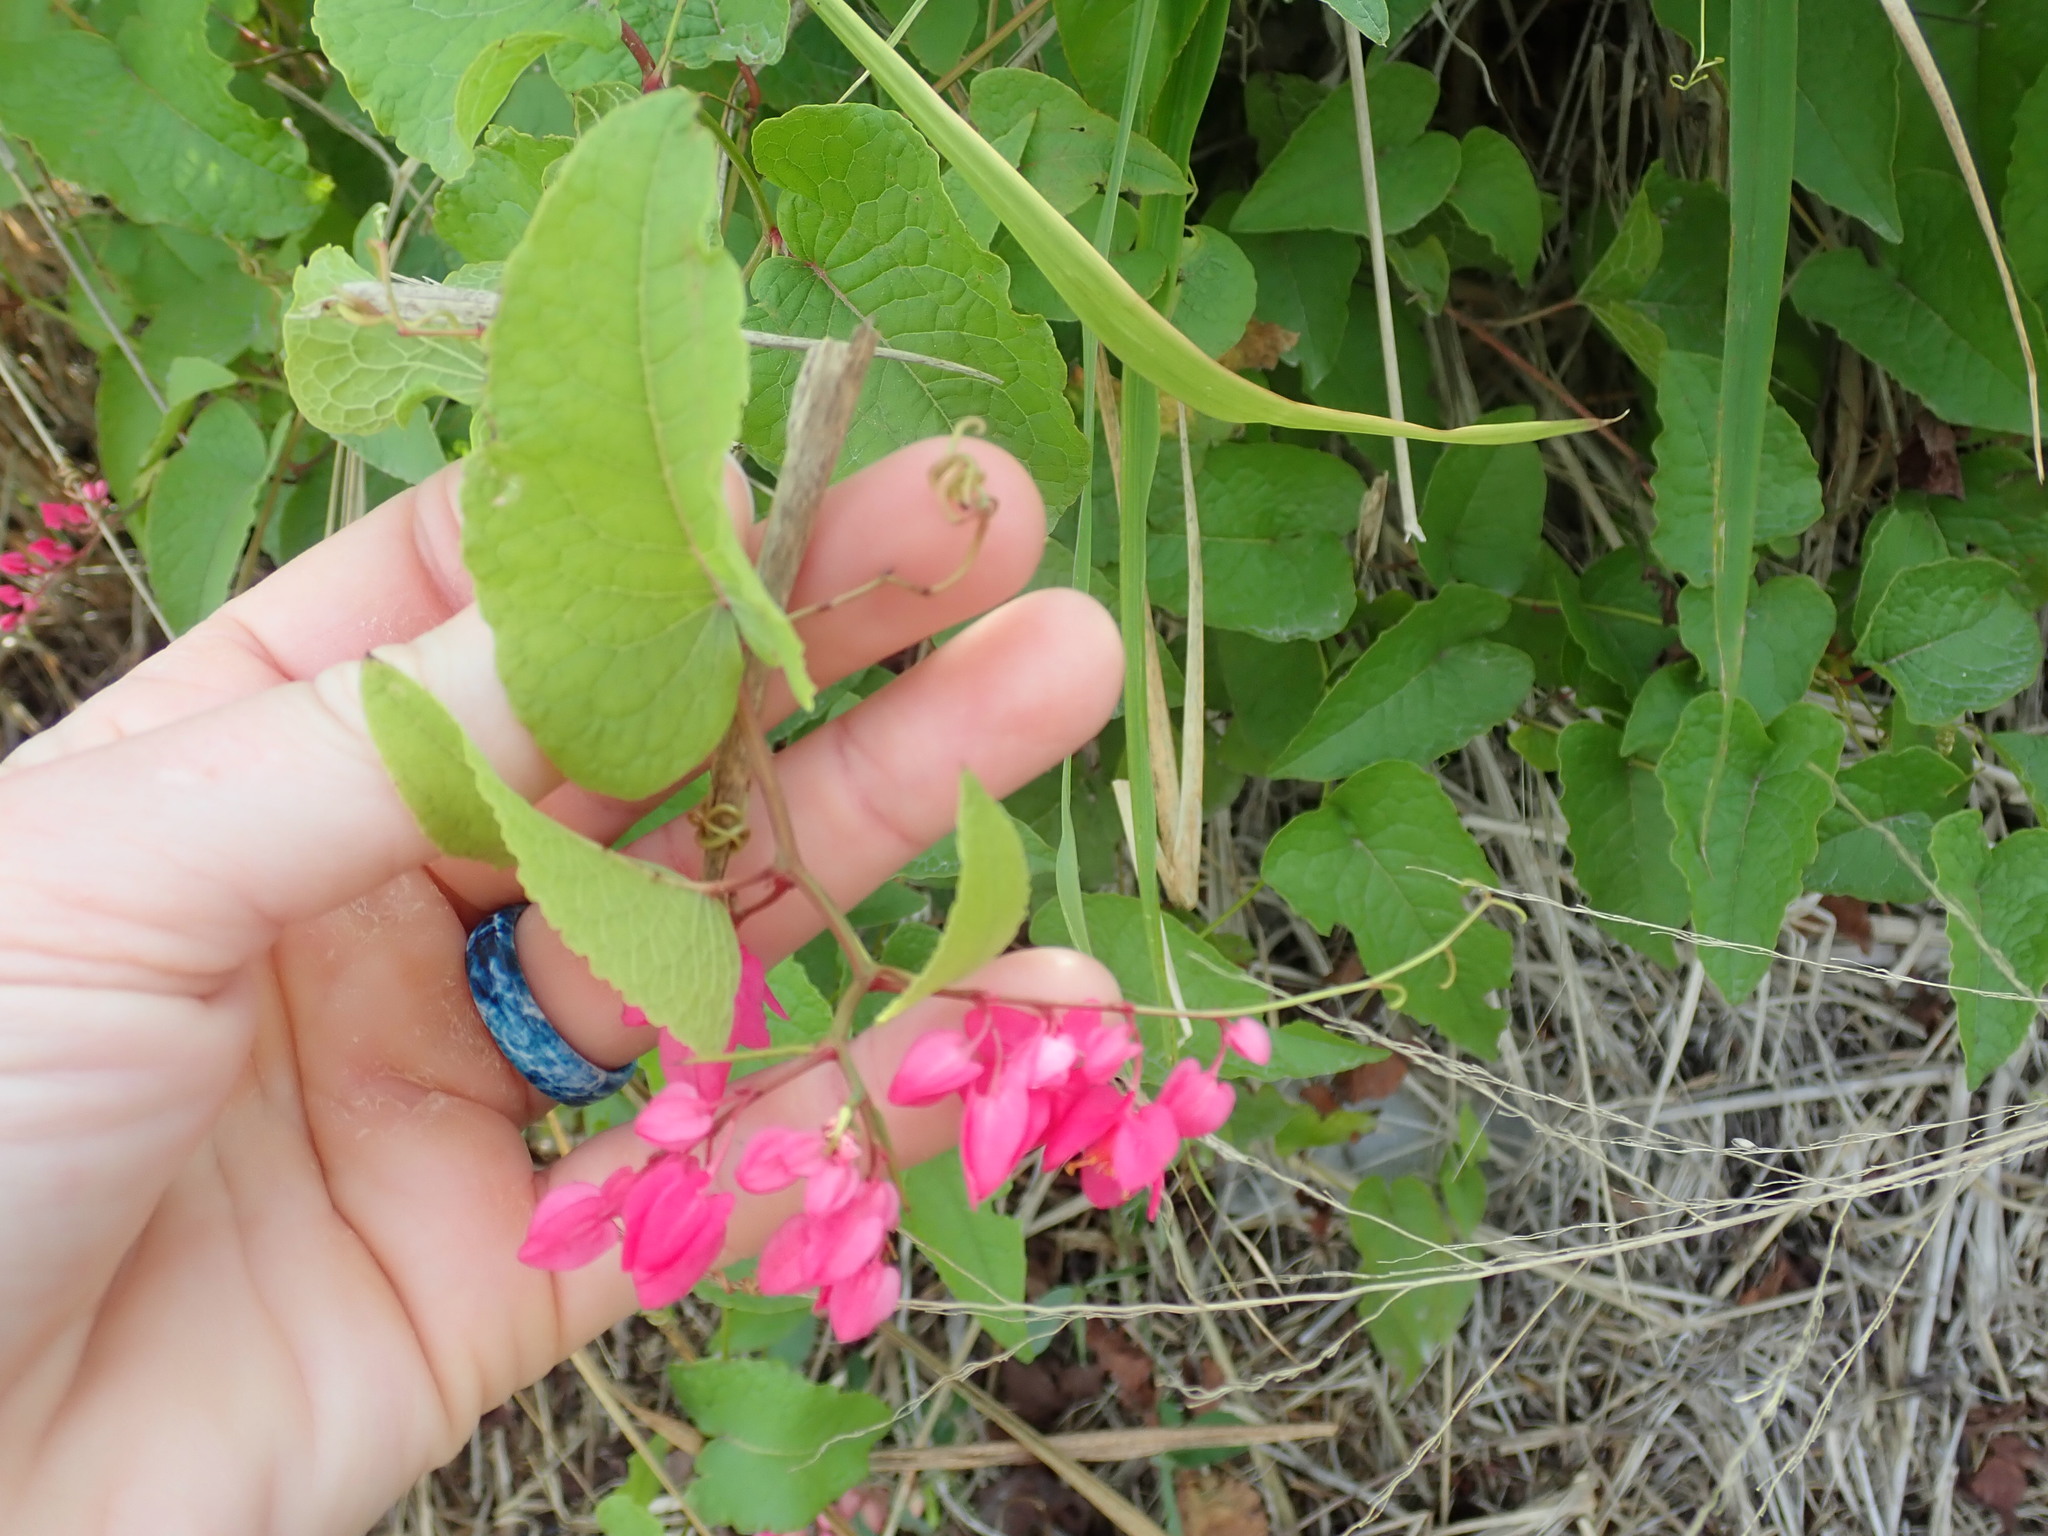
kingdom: Plantae
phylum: Tracheophyta
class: Magnoliopsida
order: Caryophyllales
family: Polygonaceae
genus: Antigonon
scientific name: Antigonon leptopus
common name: Coral vine
